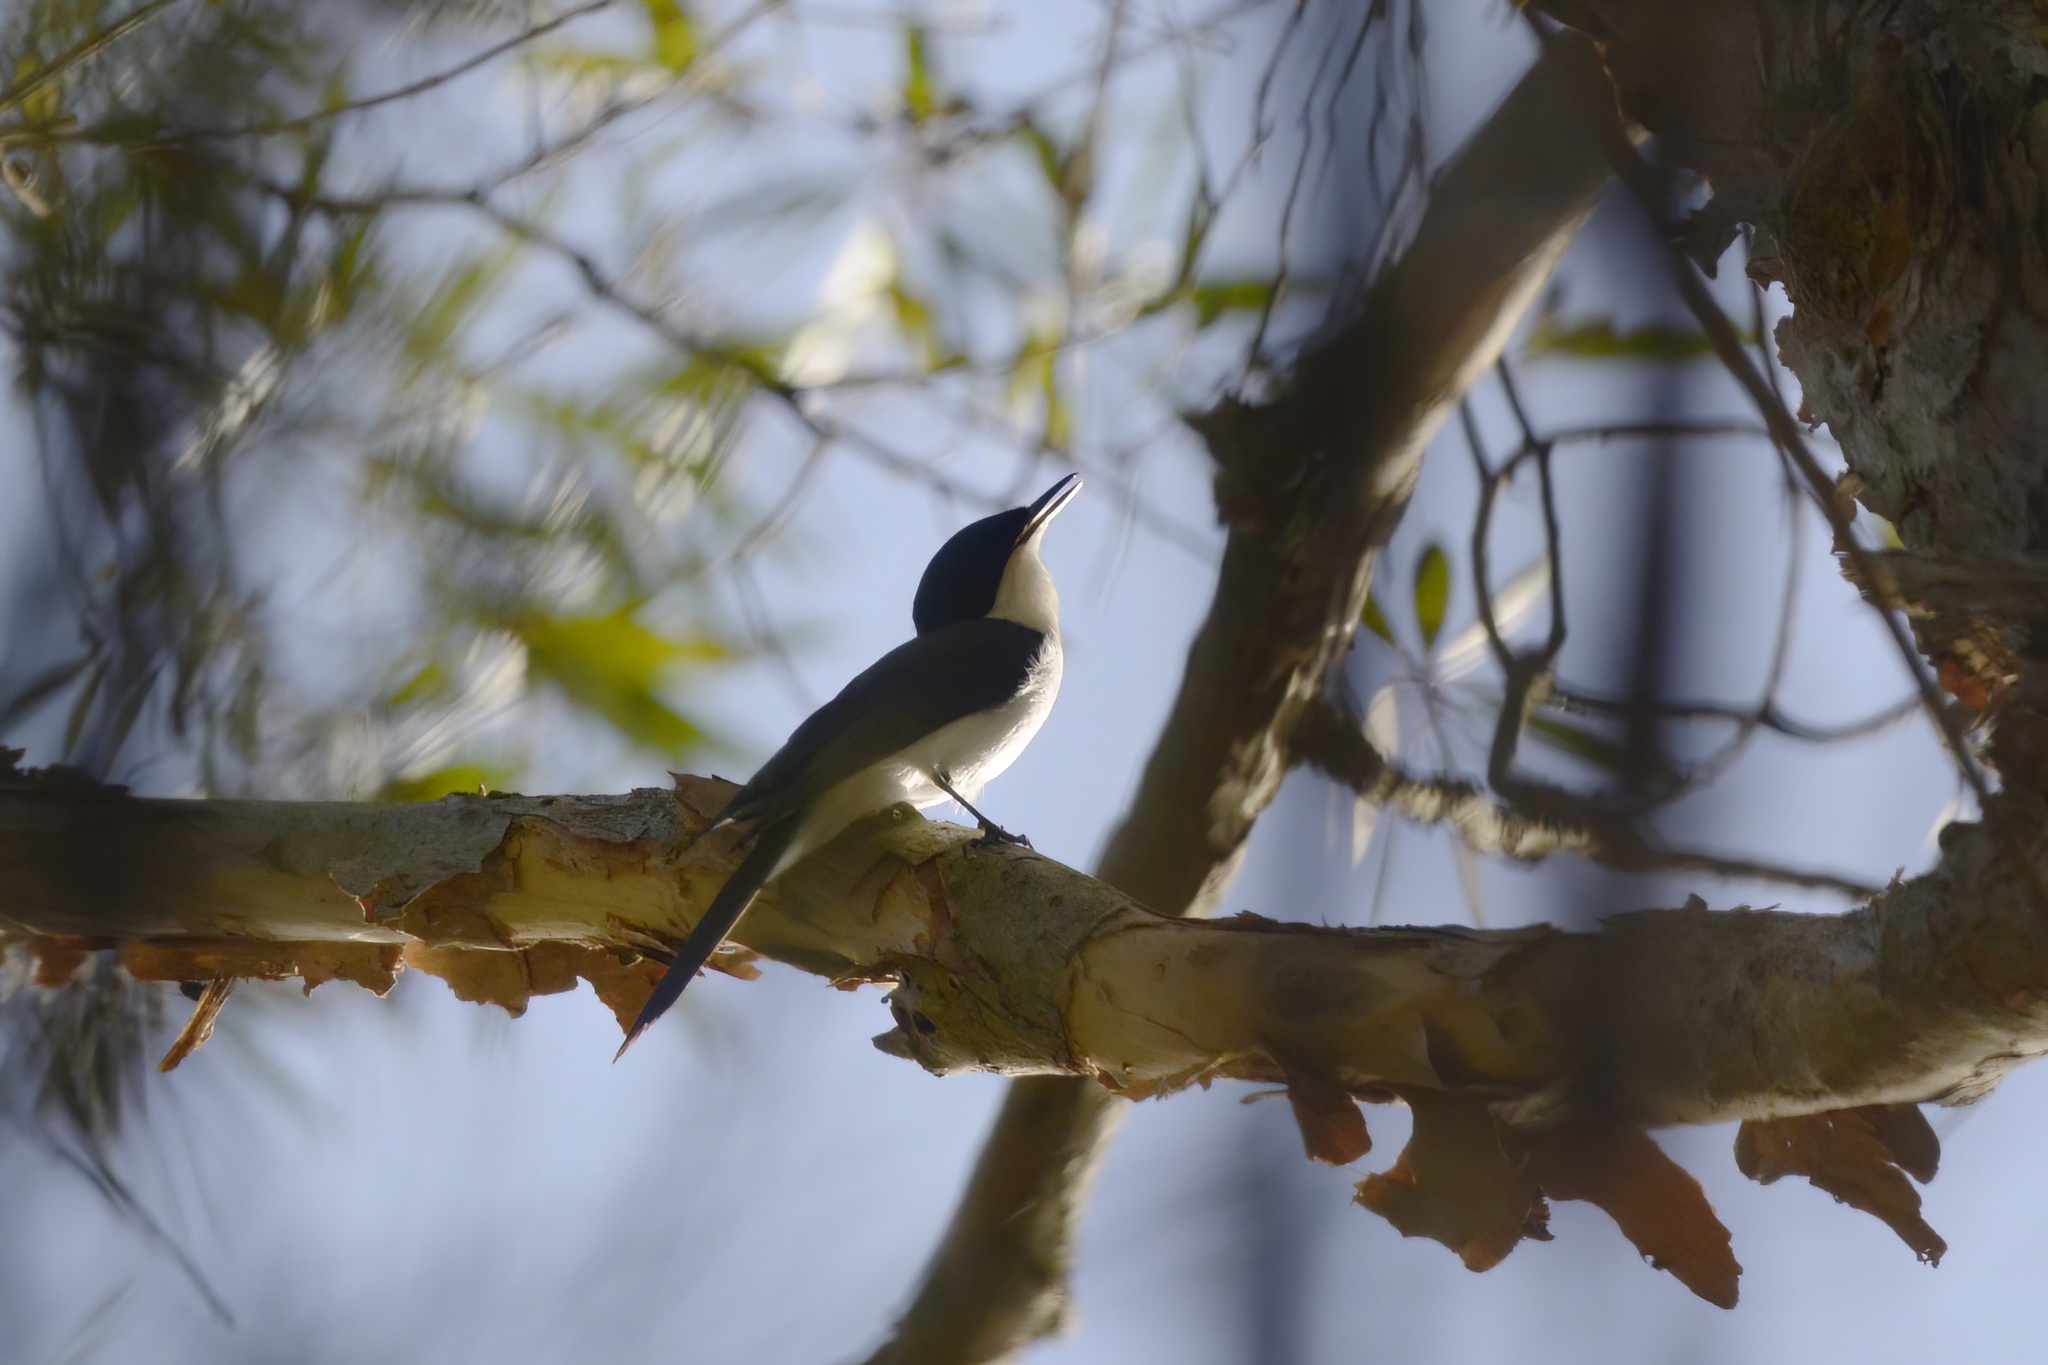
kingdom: Animalia
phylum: Chordata
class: Aves
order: Passeriformes
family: Monarchidae
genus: Myiagra
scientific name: Myiagra inquieta
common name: Restless flycatcher
